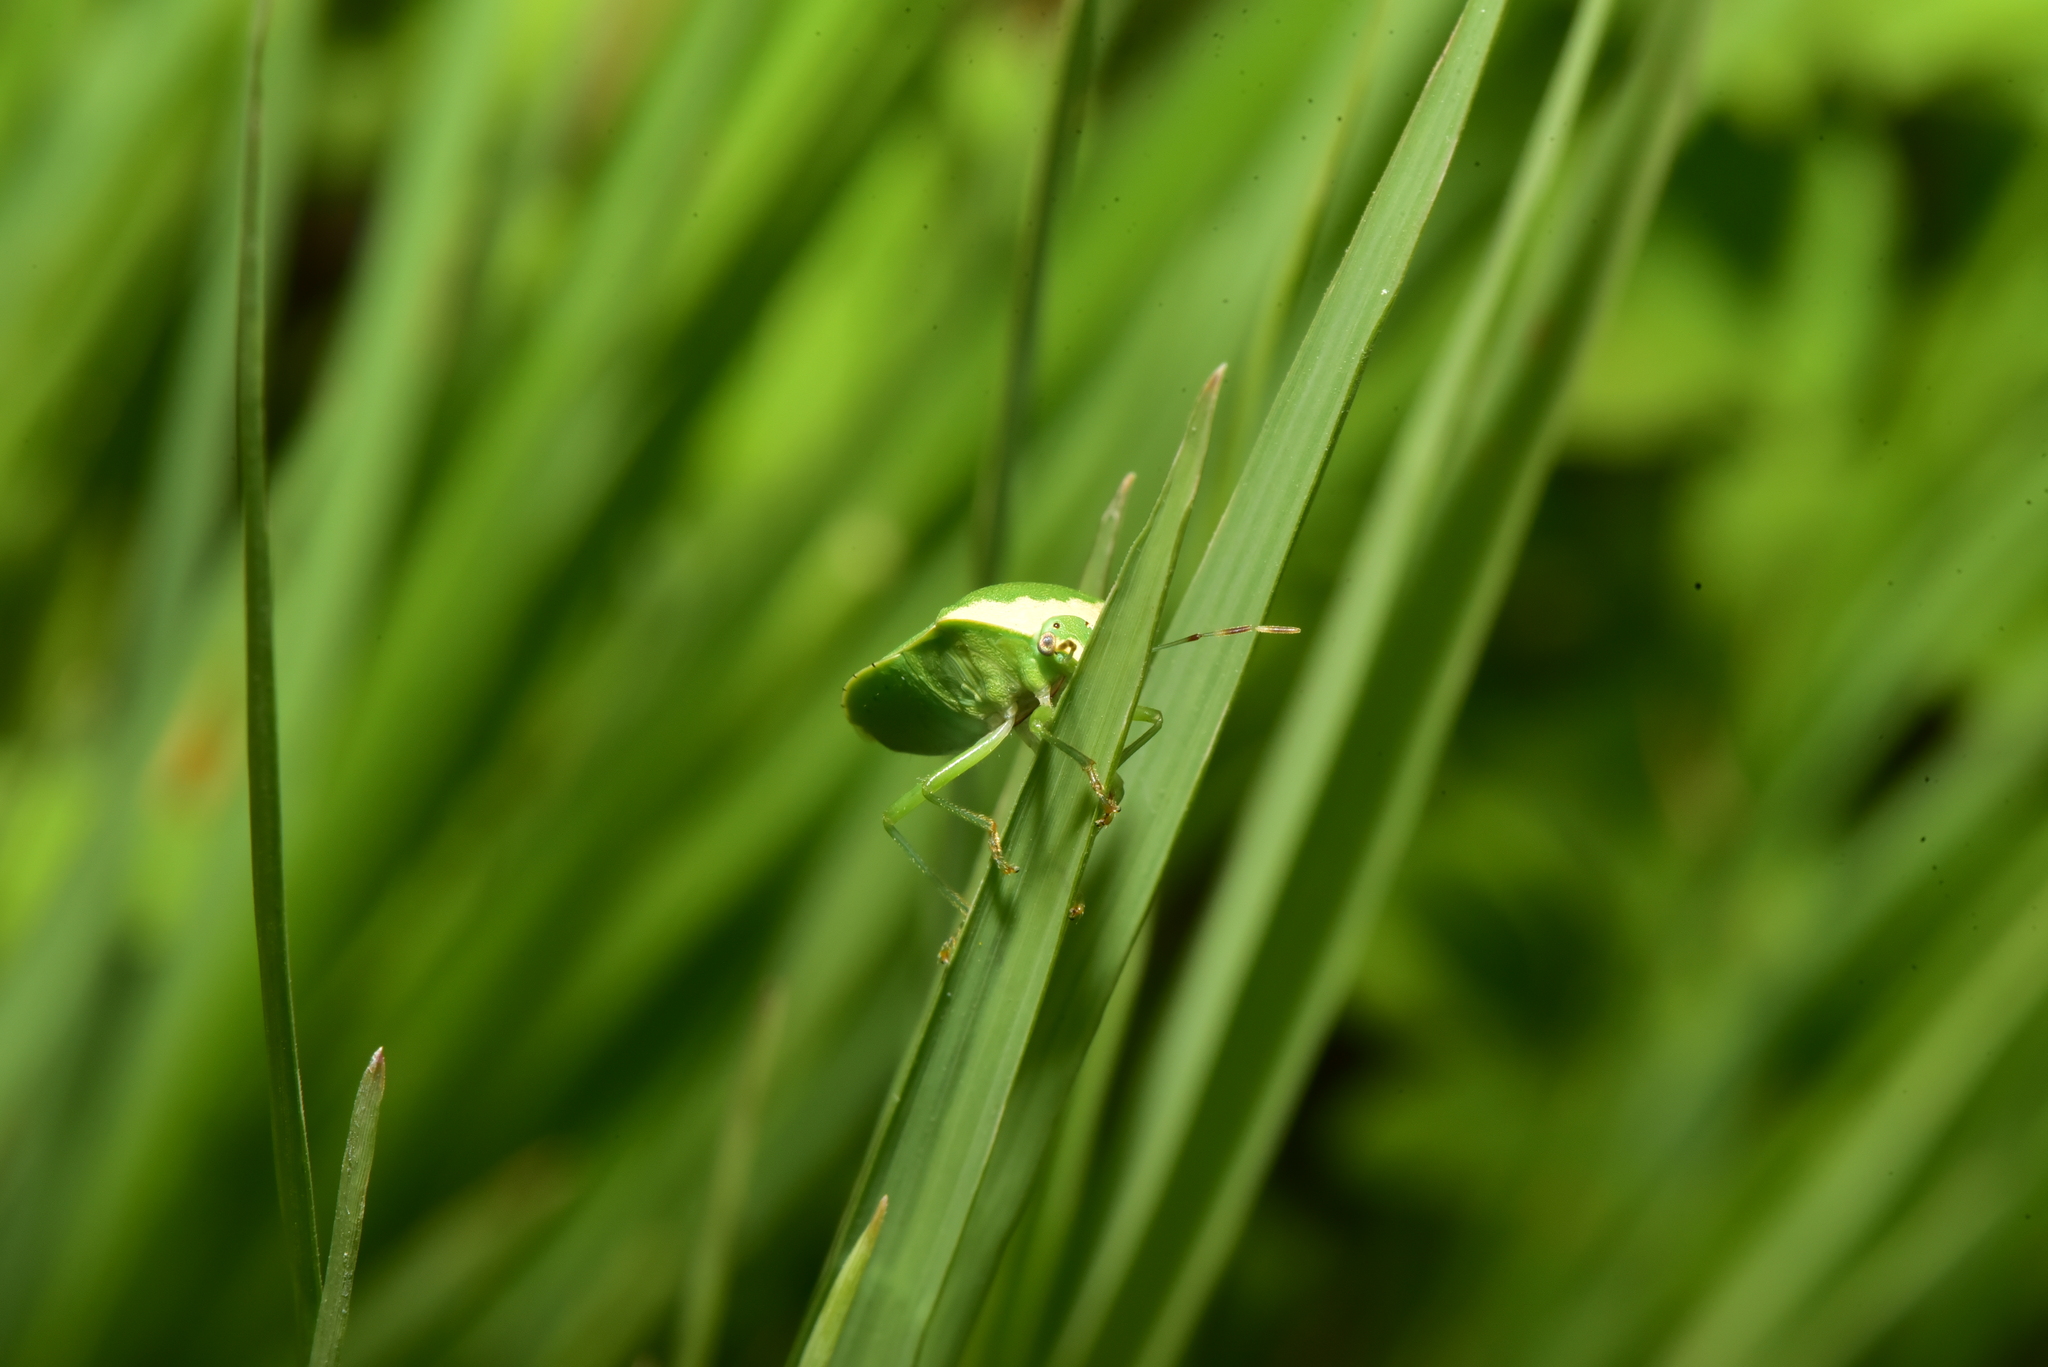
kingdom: Animalia
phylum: Arthropoda
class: Insecta
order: Hemiptera
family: Pentatomidae
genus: Nezara
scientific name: Nezara viridula
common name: Southern green stink bug
